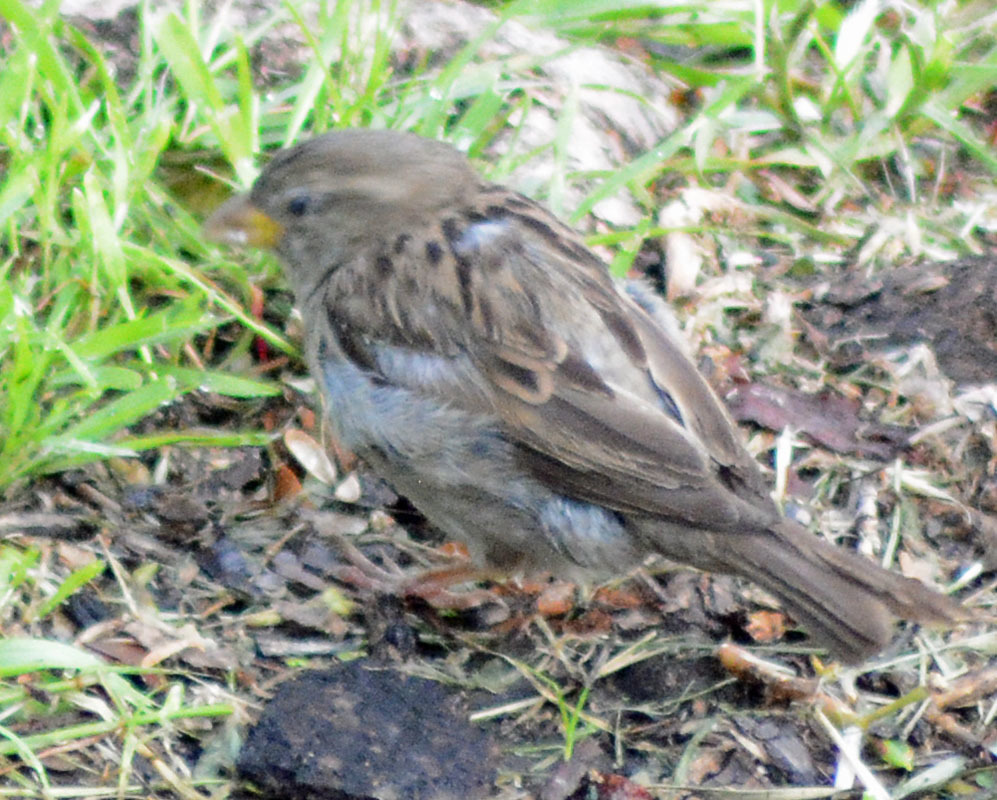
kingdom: Animalia
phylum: Chordata
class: Aves
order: Passeriformes
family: Passeridae
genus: Passer
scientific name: Passer domesticus
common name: House sparrow
